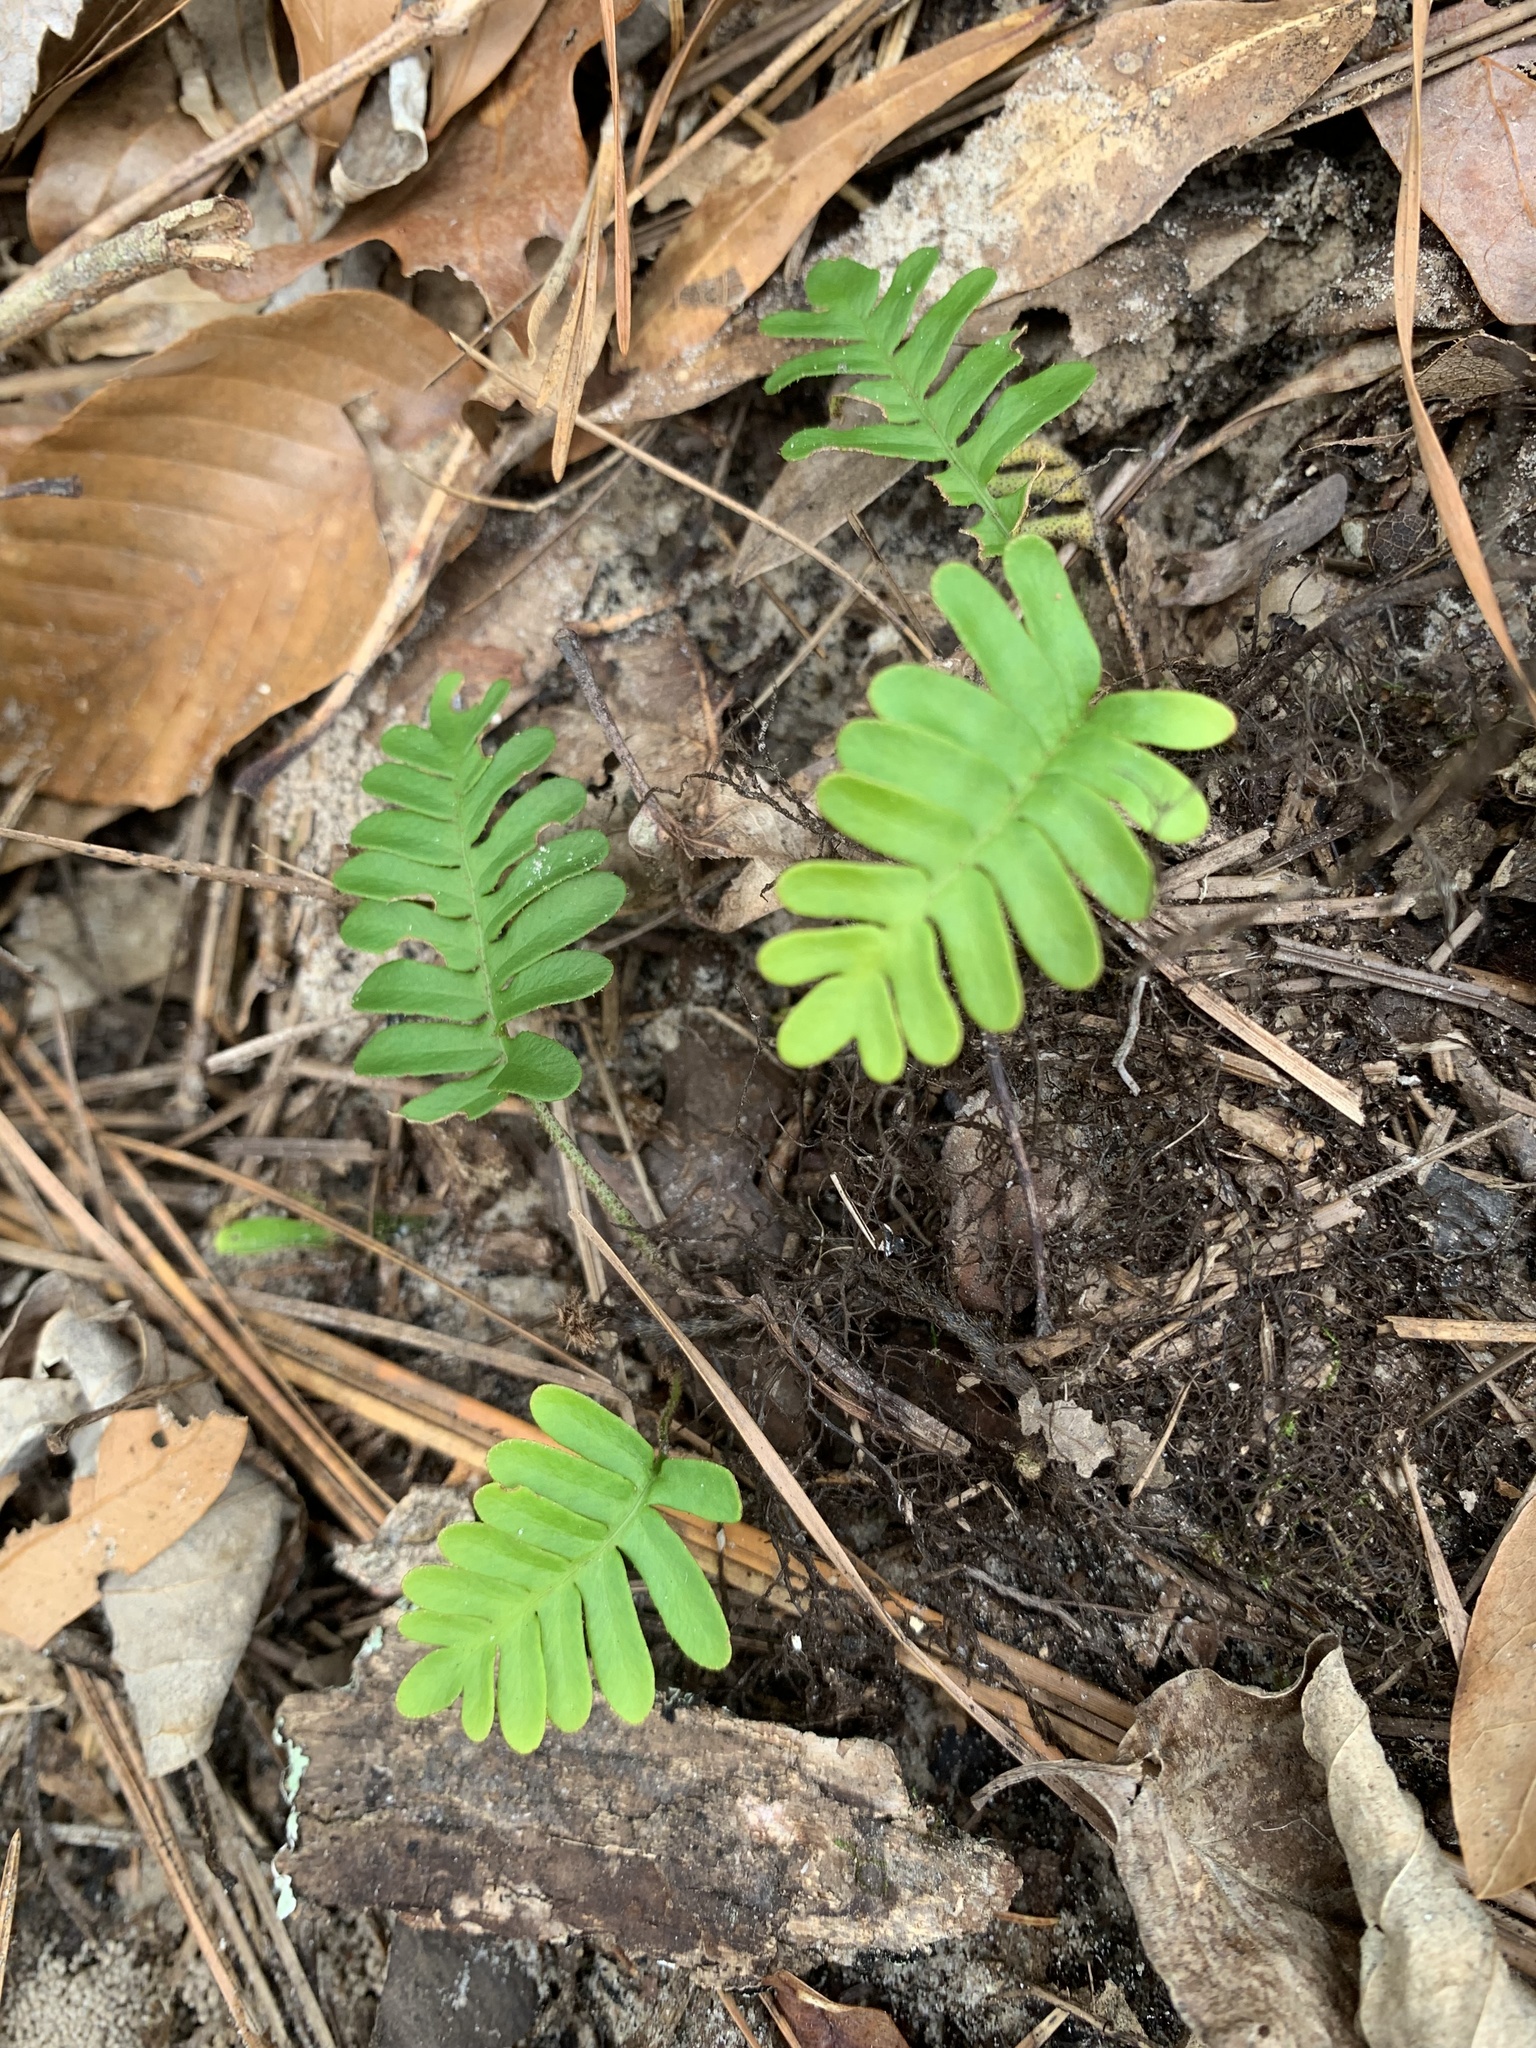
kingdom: Plantae
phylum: Tracheophyta
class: Polypodiopsida
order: Polypodiales
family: Polypodiaceae
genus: Pleopeltis
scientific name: Pleopeltis michauxiana
